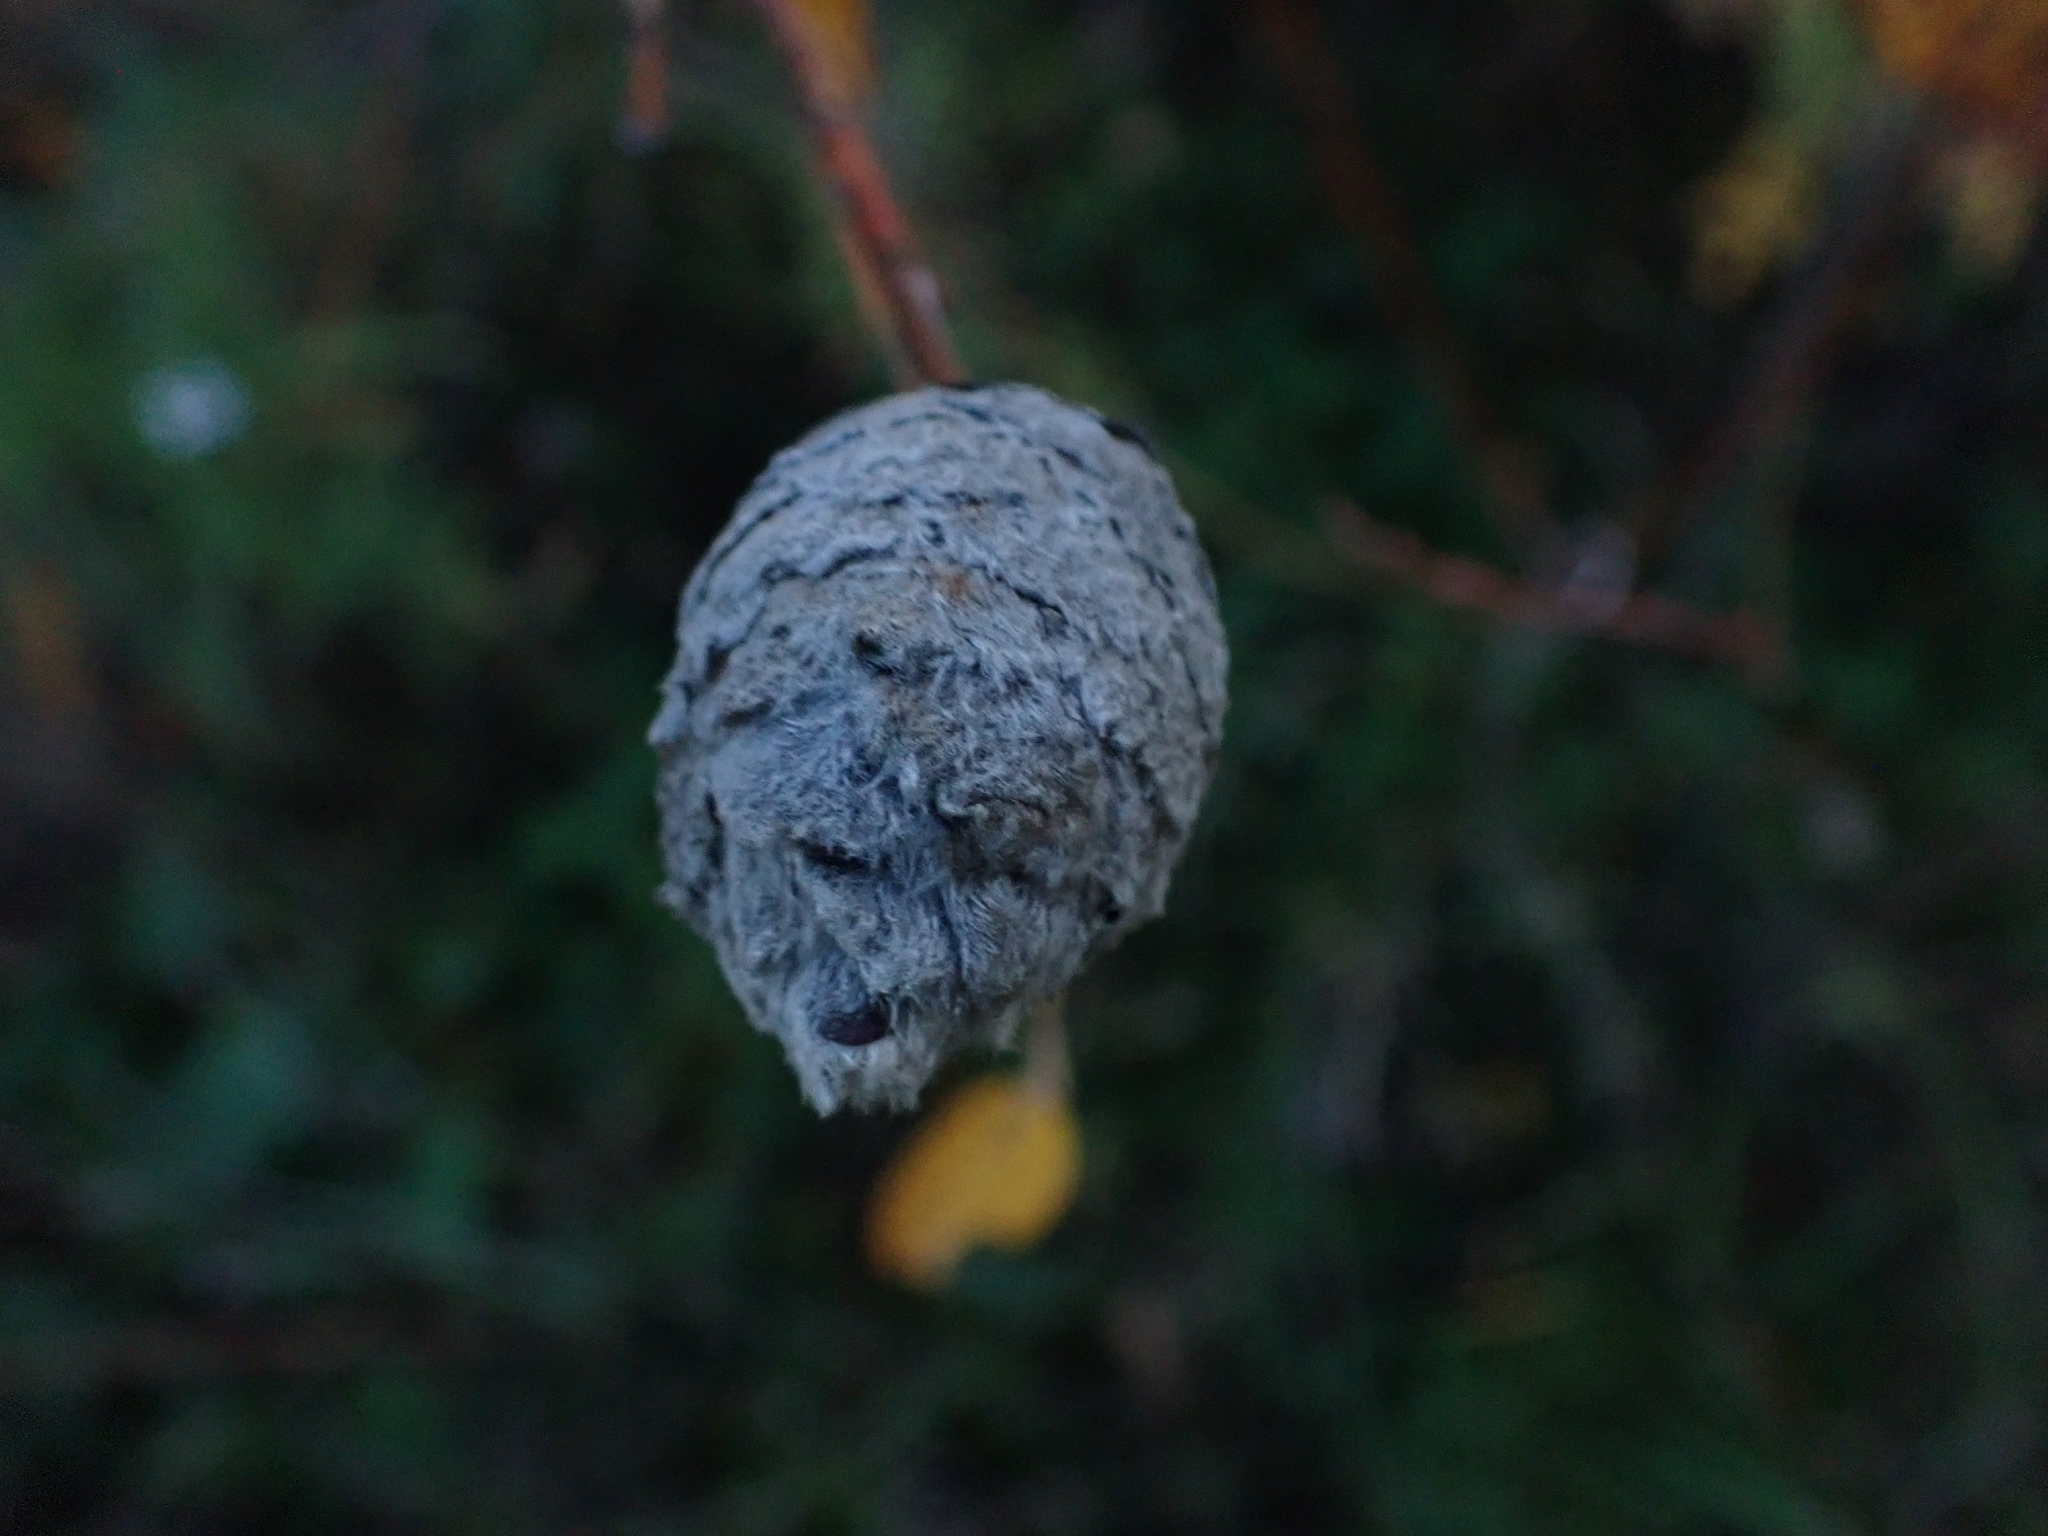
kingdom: Animalia
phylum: Arthropoda
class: Insecta
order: Diptera
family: Cecidomyiidae
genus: Rabdophaga
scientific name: Rabdophaga strobiloides
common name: Willow pinecone gall midge
